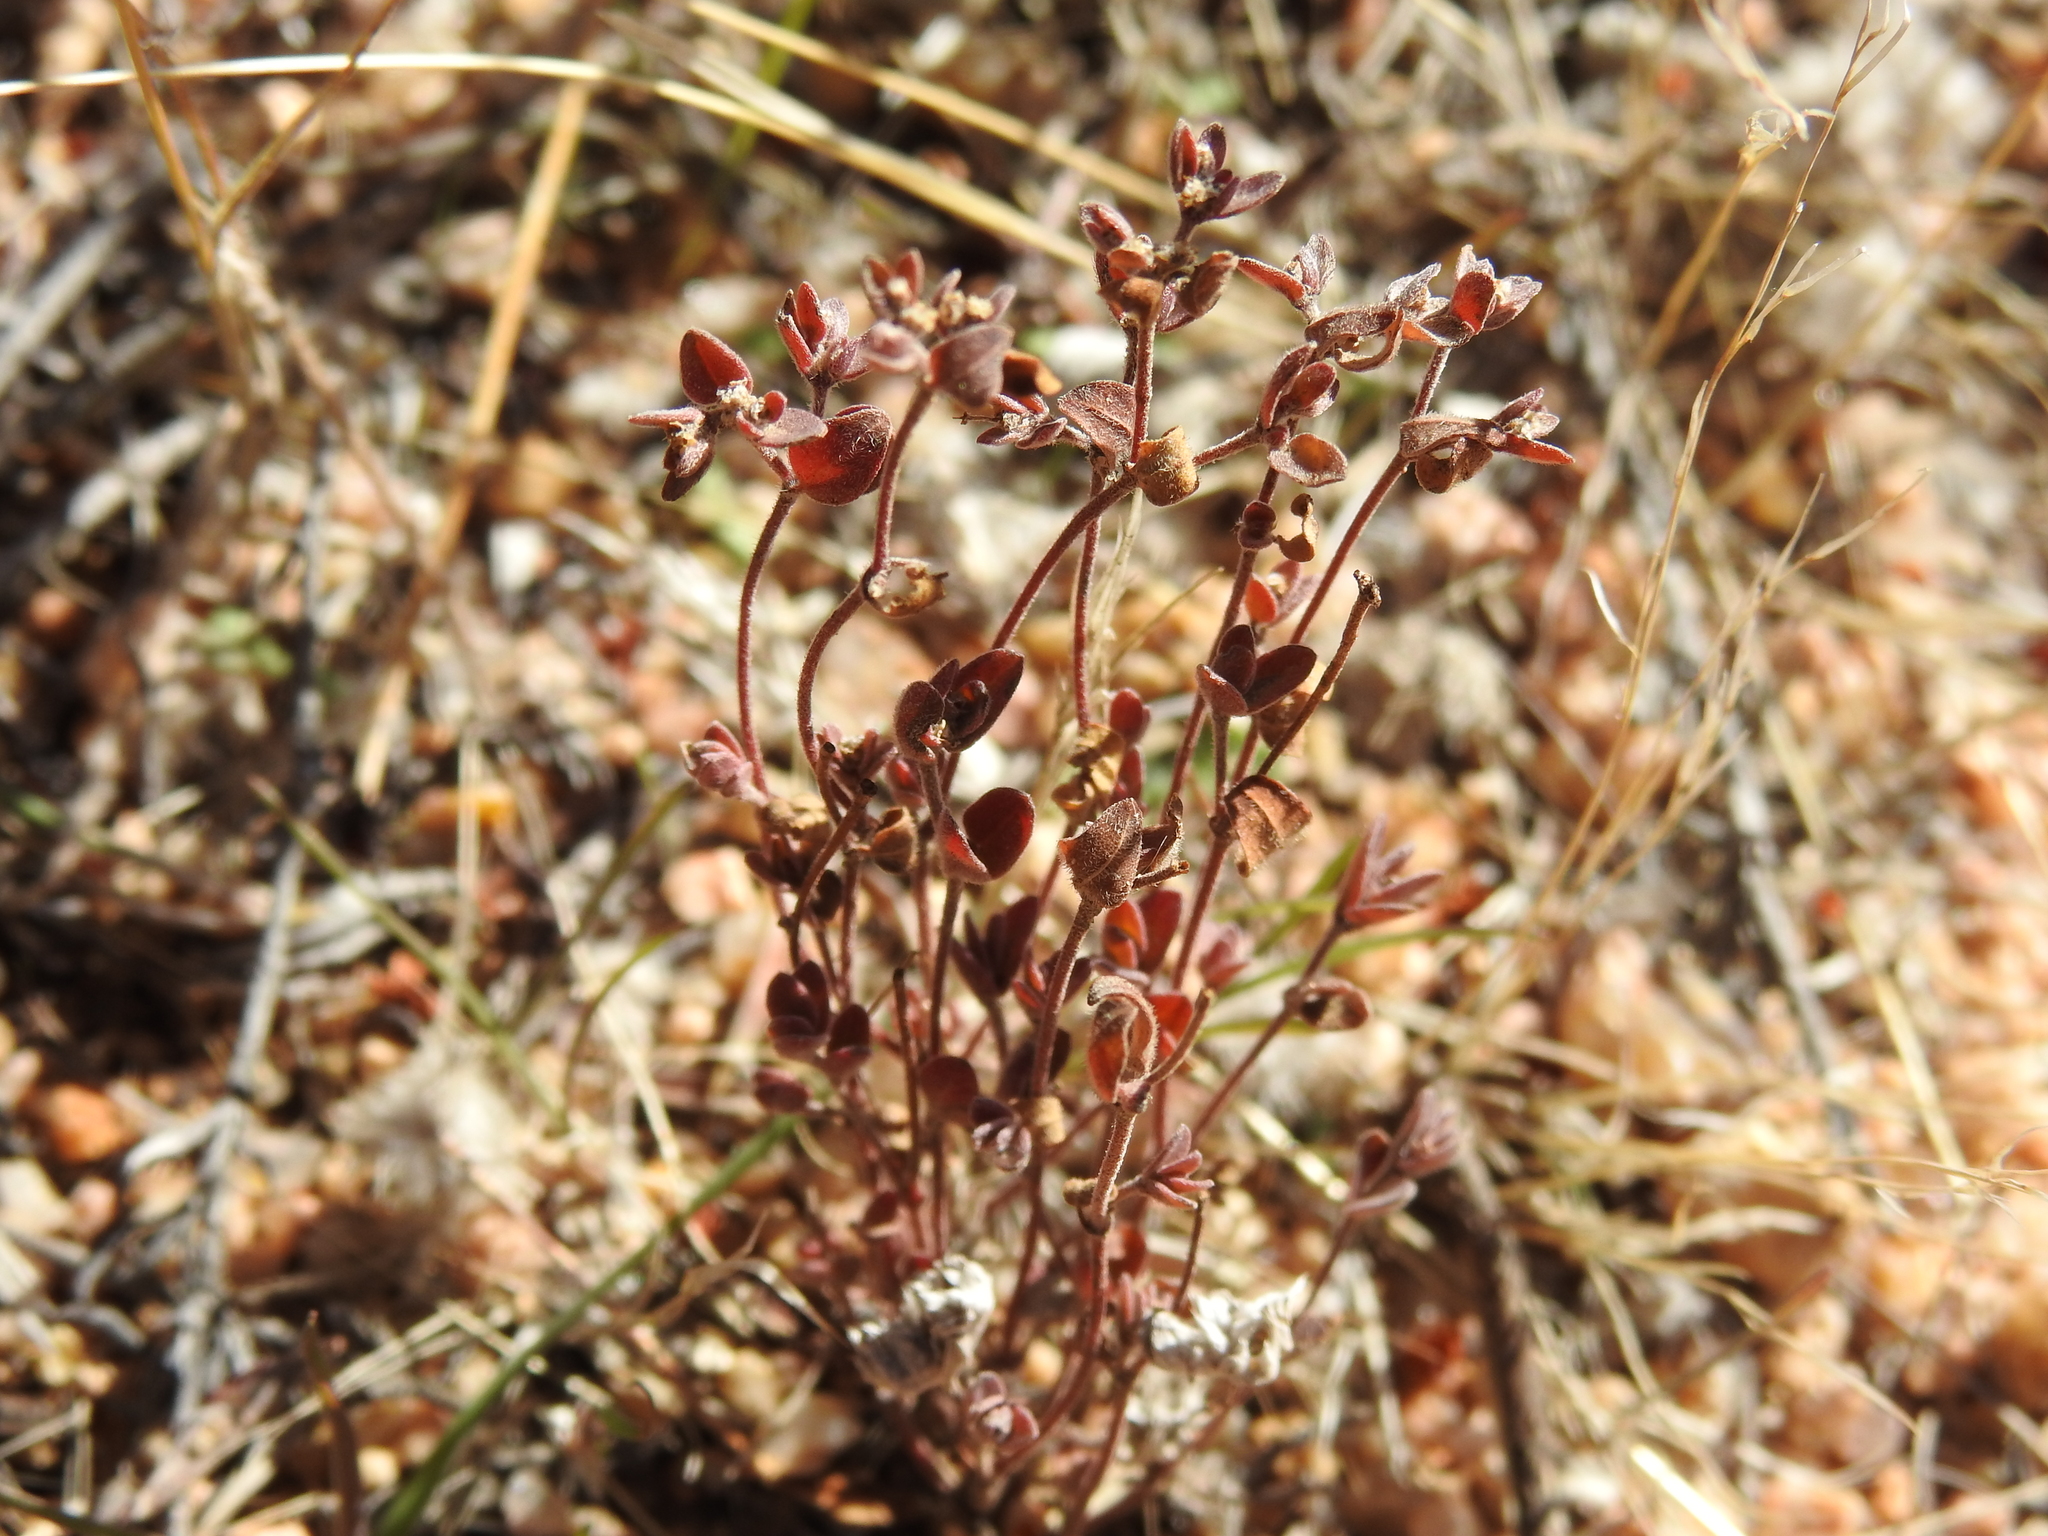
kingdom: Plantae
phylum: Tracheophyta
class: Magnoliopsida
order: Malpighiales
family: Euphorbiaceae
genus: Euphorbia
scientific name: Euphorbia melanadenia
